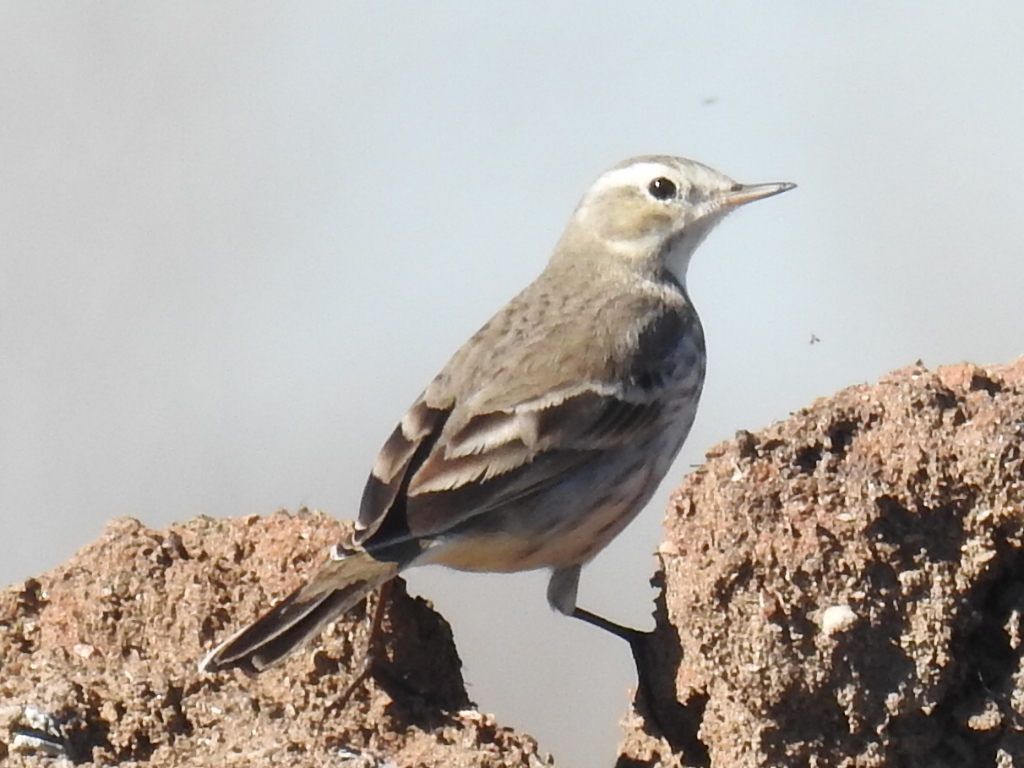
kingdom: Animalia
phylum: Chordata
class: Aves
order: Passeriformes
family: Motacillidae
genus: Anthus
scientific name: Anthus rubescens
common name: Buff-bellied pipit
